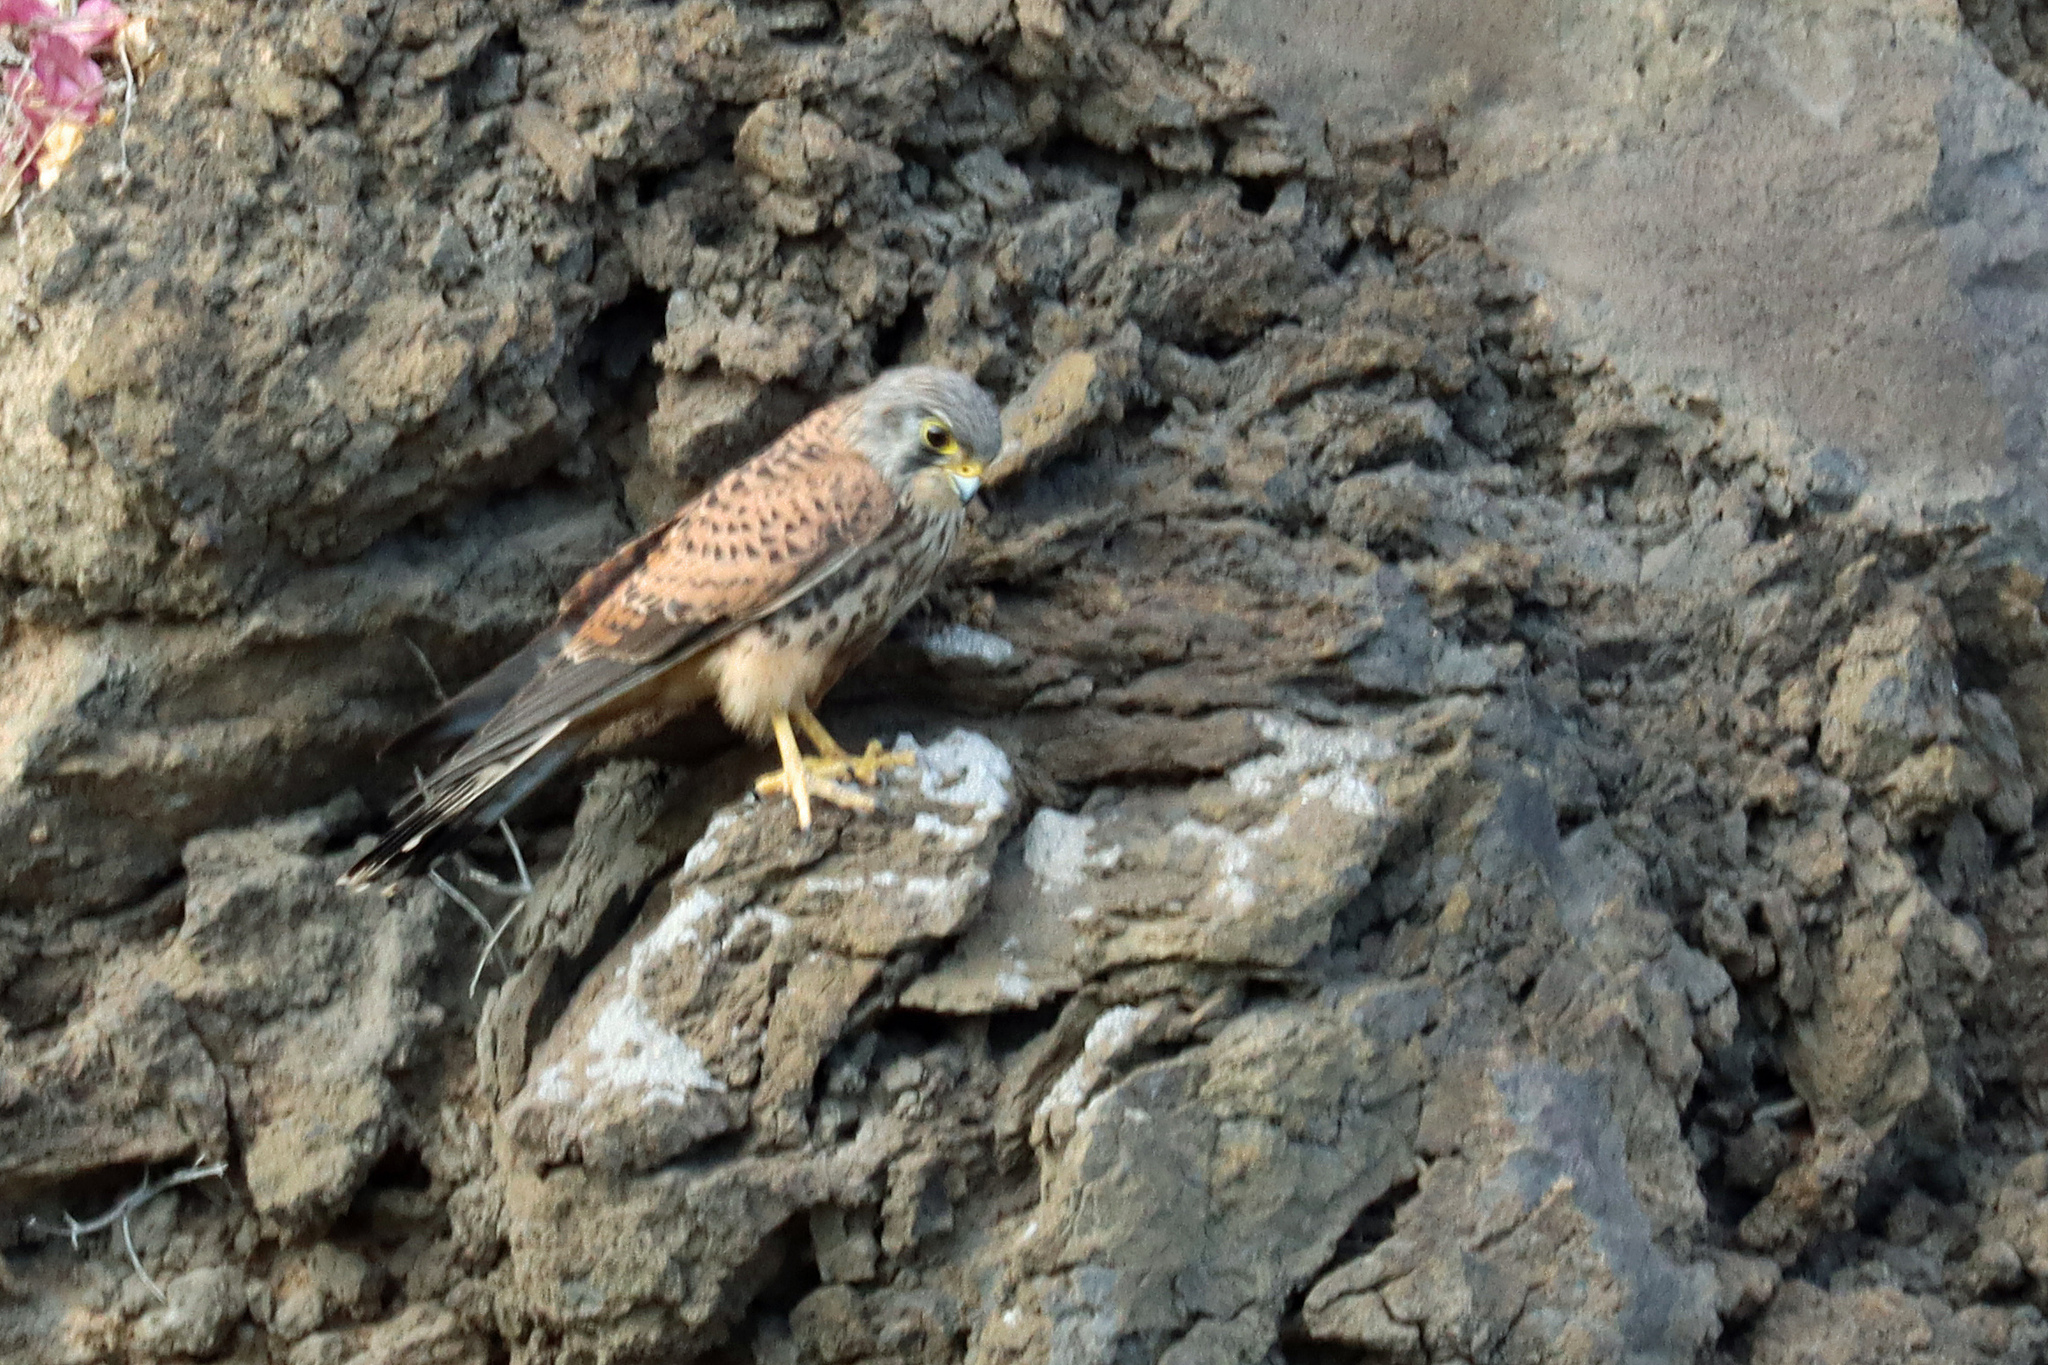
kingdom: Animalia
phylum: Chordata
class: Aves
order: Falconiformes
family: Falconidae
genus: Falco
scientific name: Falco tinnunculus
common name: Common kestrel
